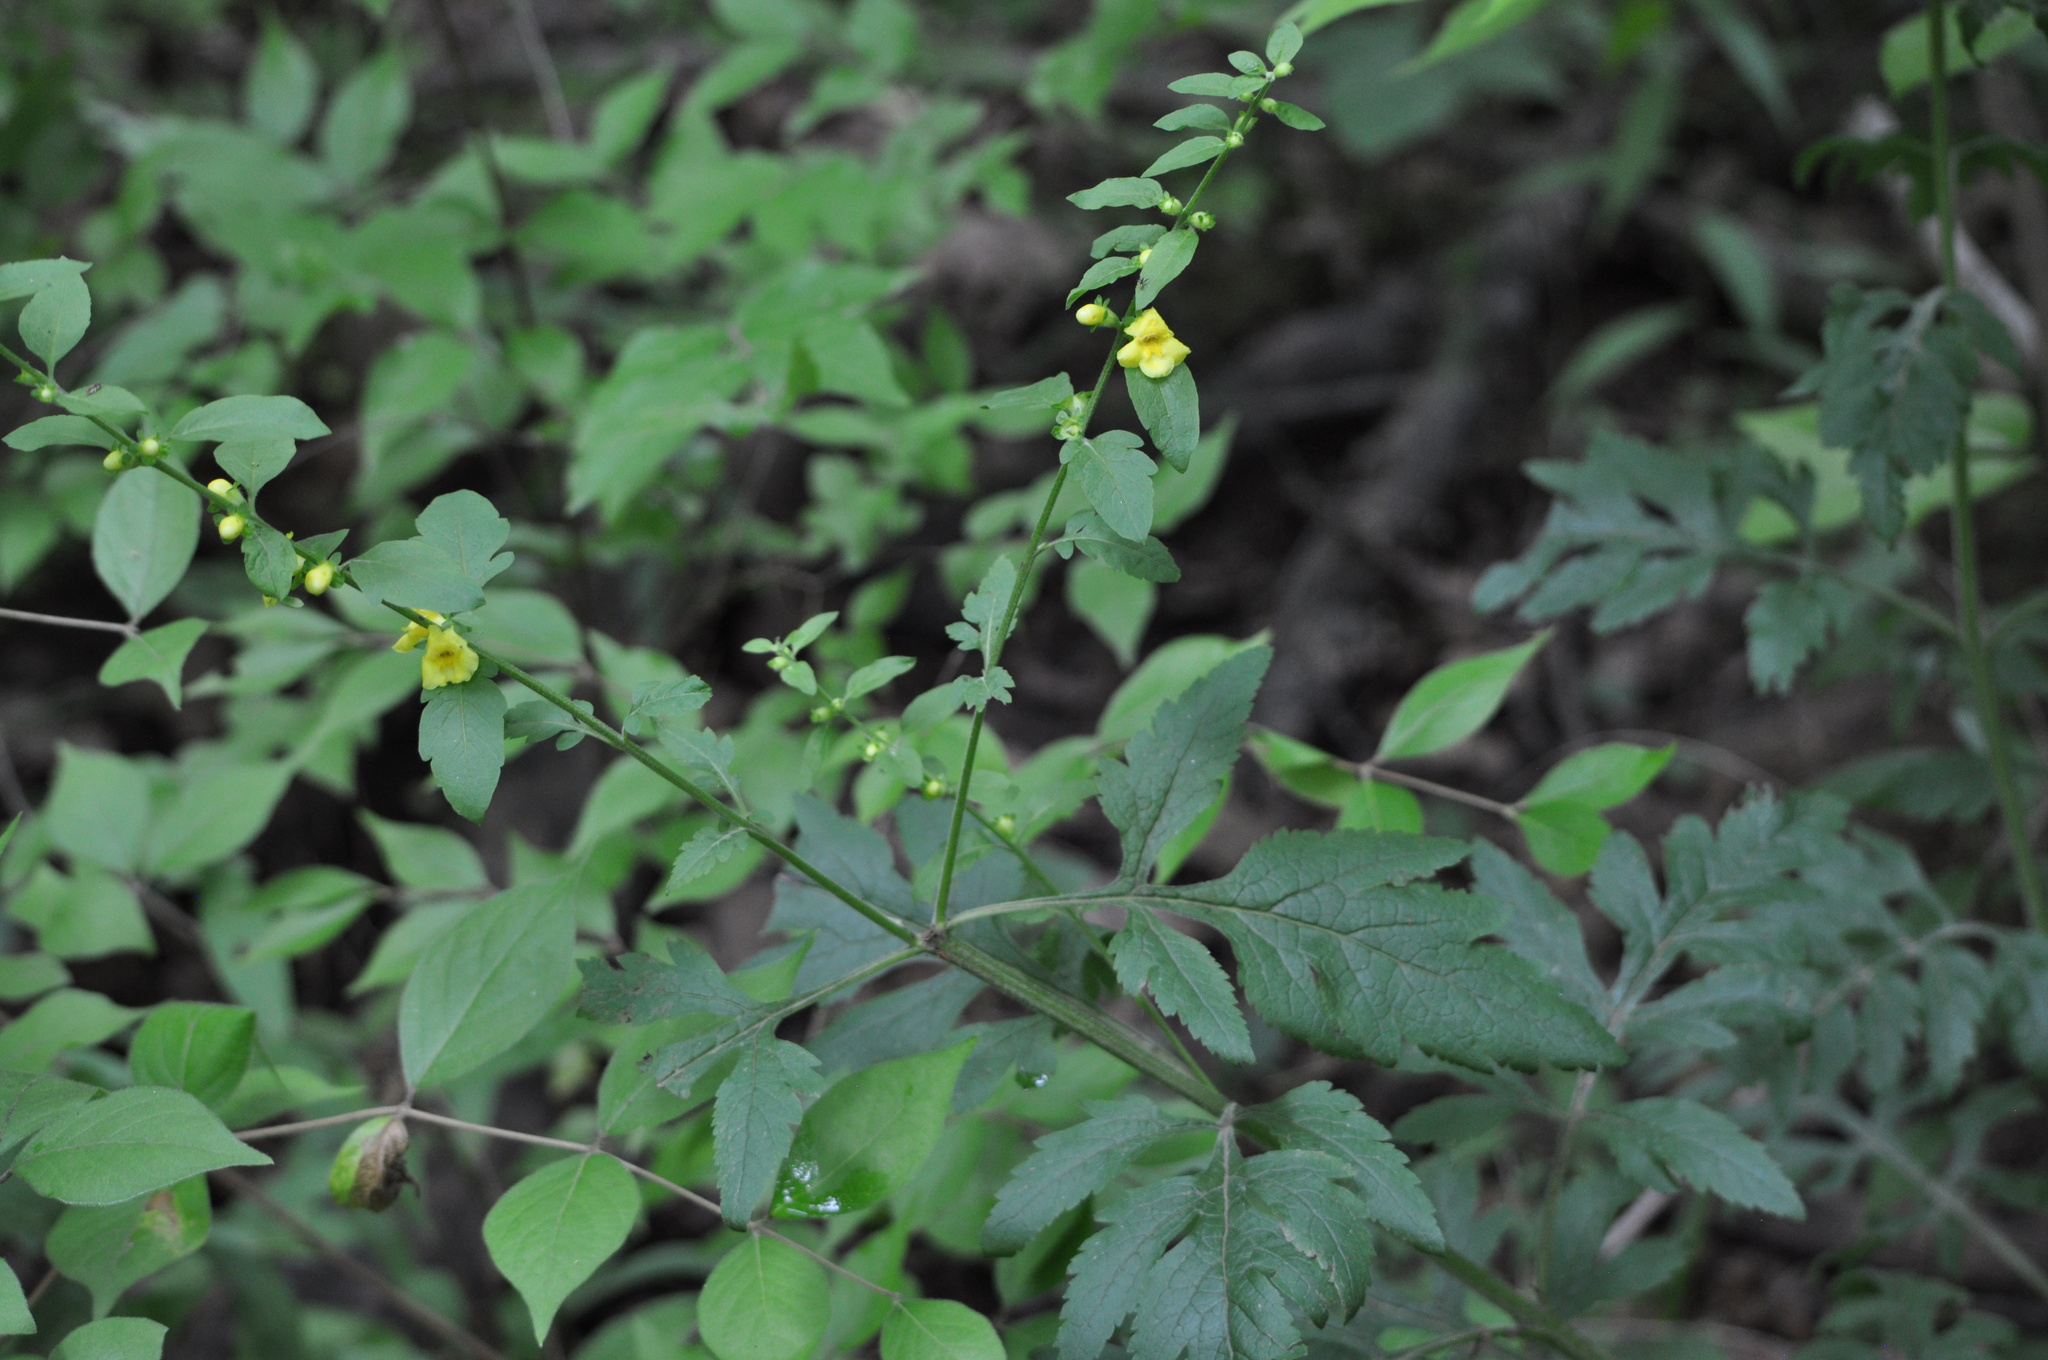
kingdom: Plantae
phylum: Tracheophyta
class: Magnoliopsida
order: Lamiales
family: Orobanchaceae
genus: Dasistoma
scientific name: Dasistoma macrophyllum
